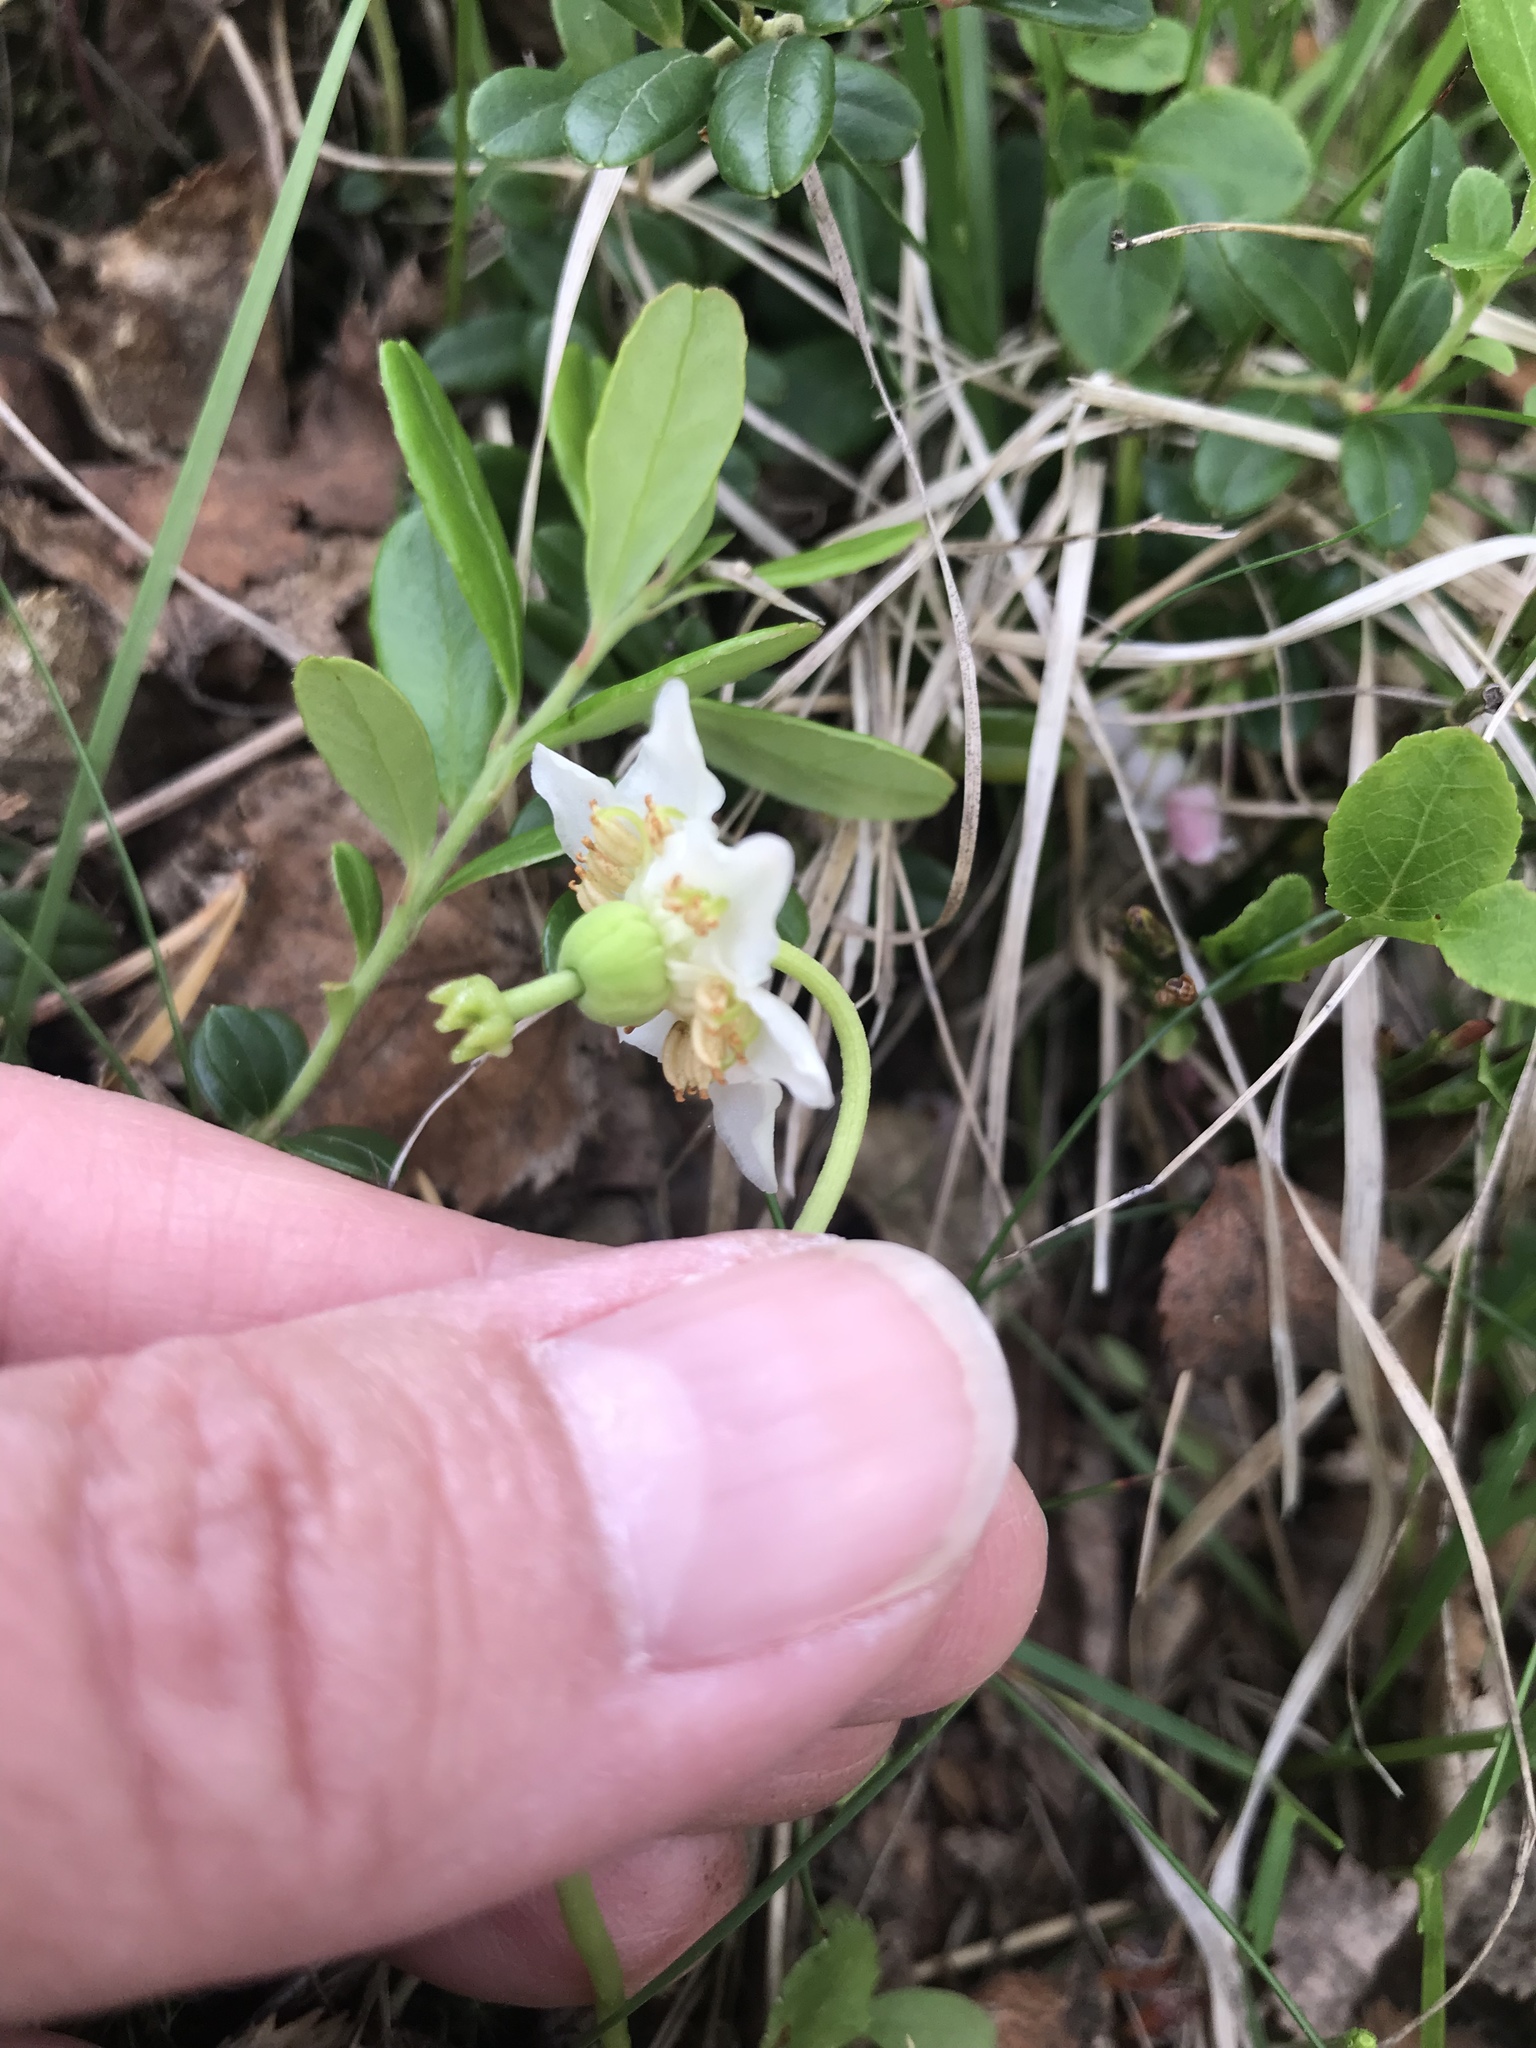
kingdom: Plantae
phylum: Tracheophyta
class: Magnoliopsida
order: Ericales
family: Ericaceae
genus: Moneses
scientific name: Moneses uniflora
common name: One-flowered wintergreen
